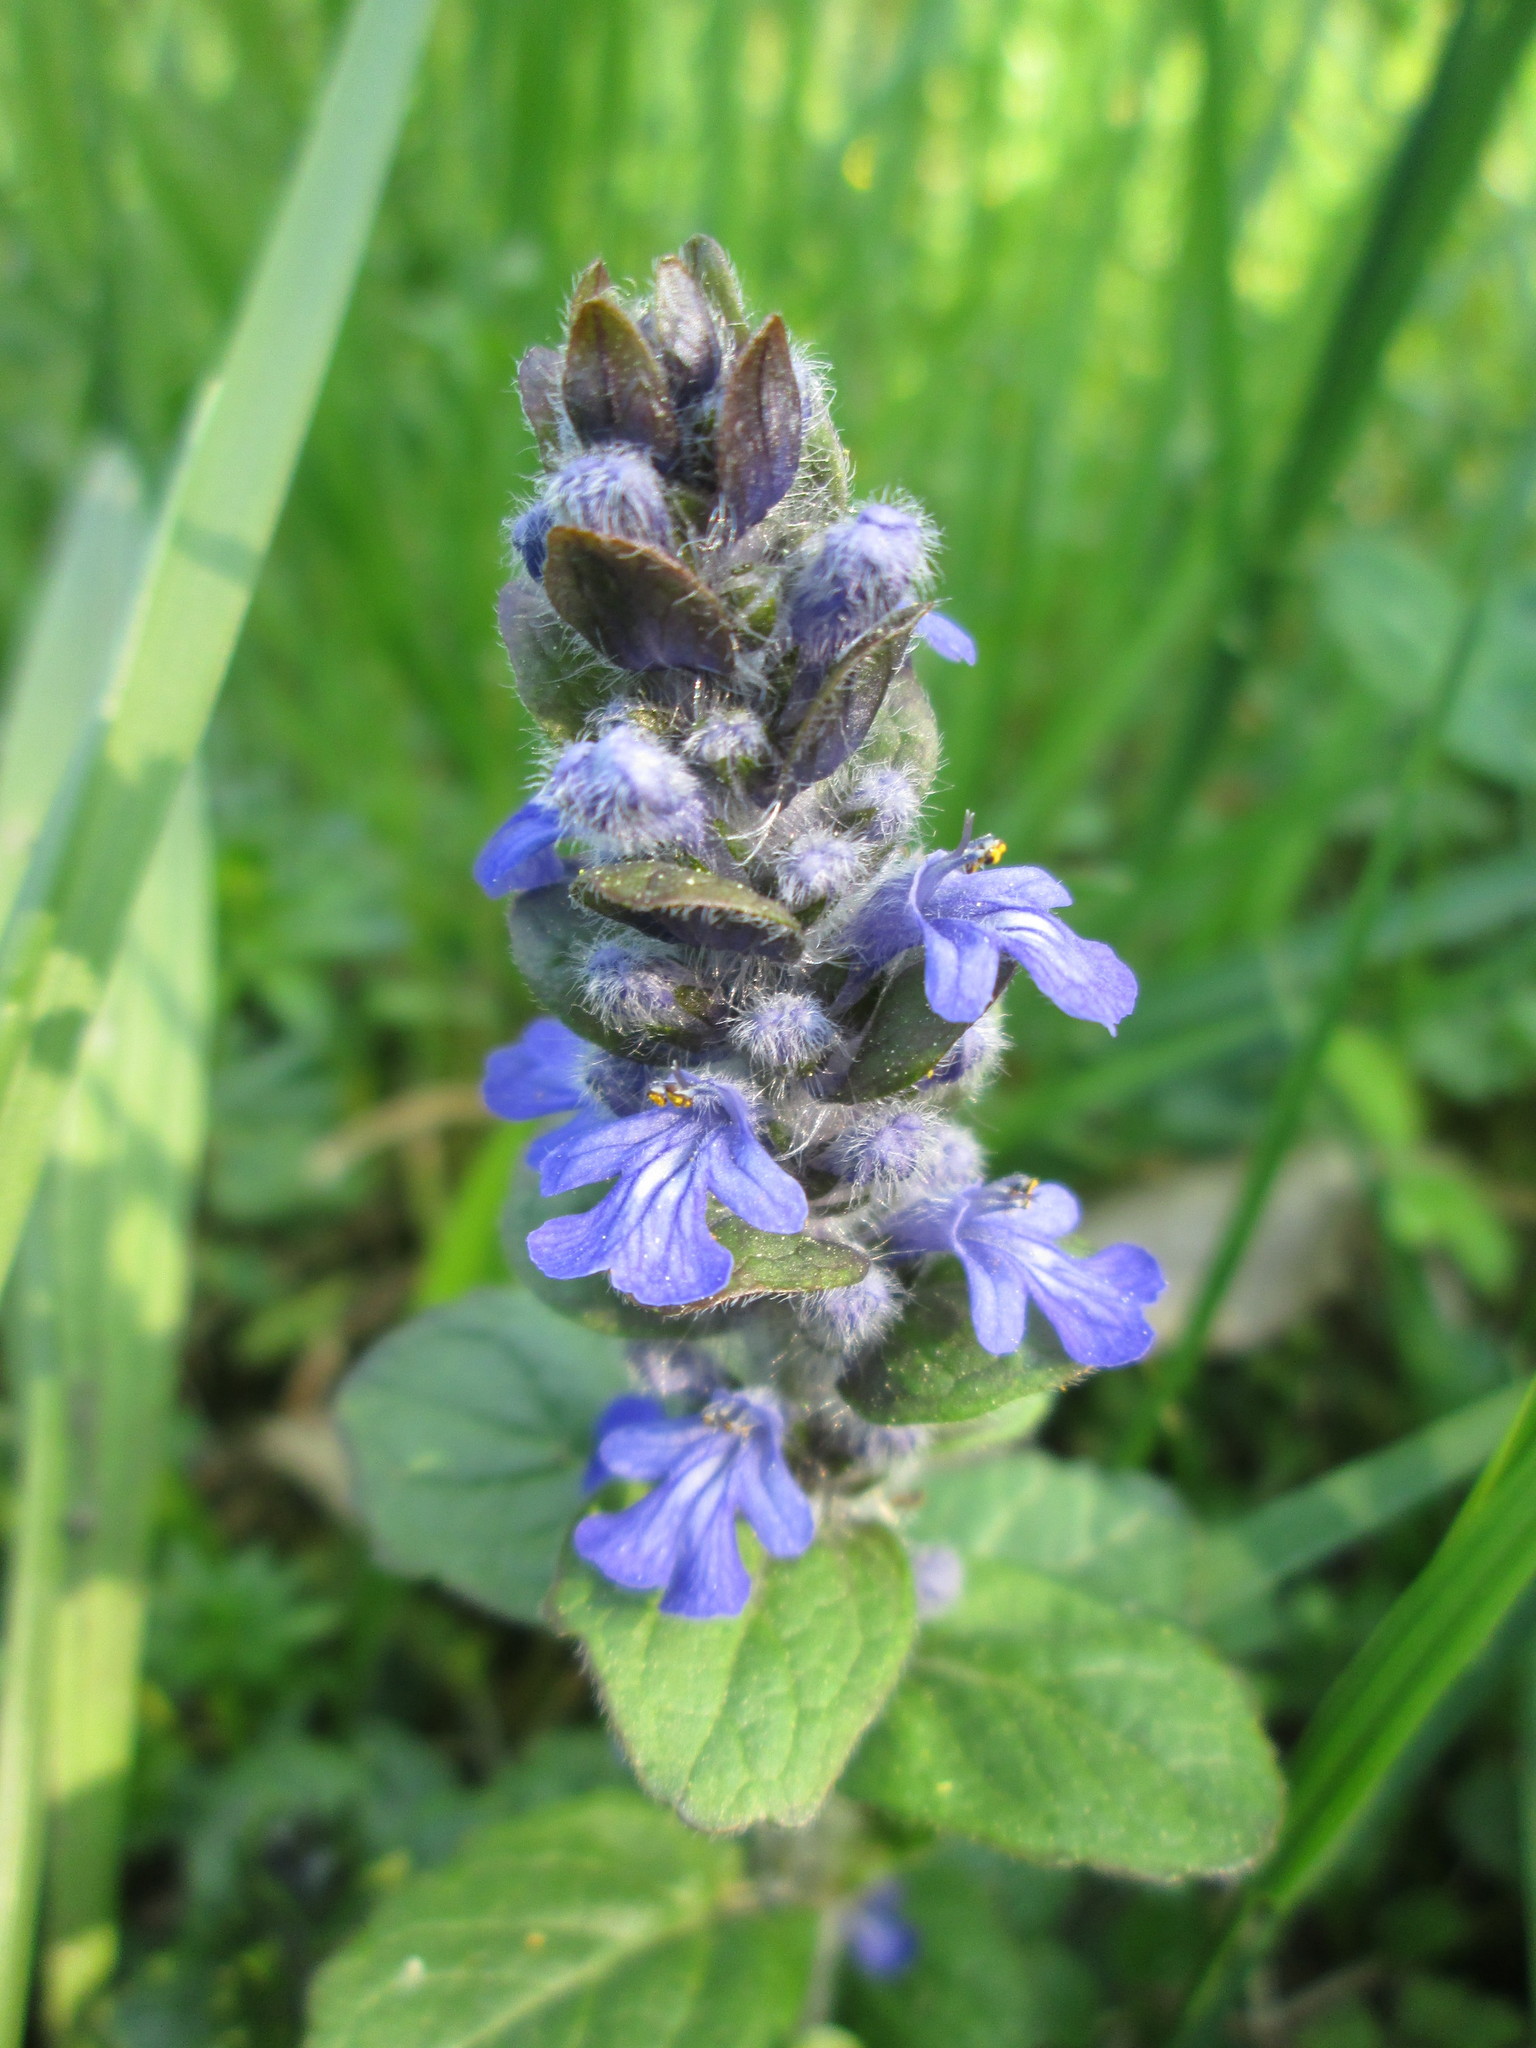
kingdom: Plantae
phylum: Tracheophyta
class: Magnoliopsida
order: Lamiales
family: Lamiaceae
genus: Ajuga
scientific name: Ajuga reptans
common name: Bugle
